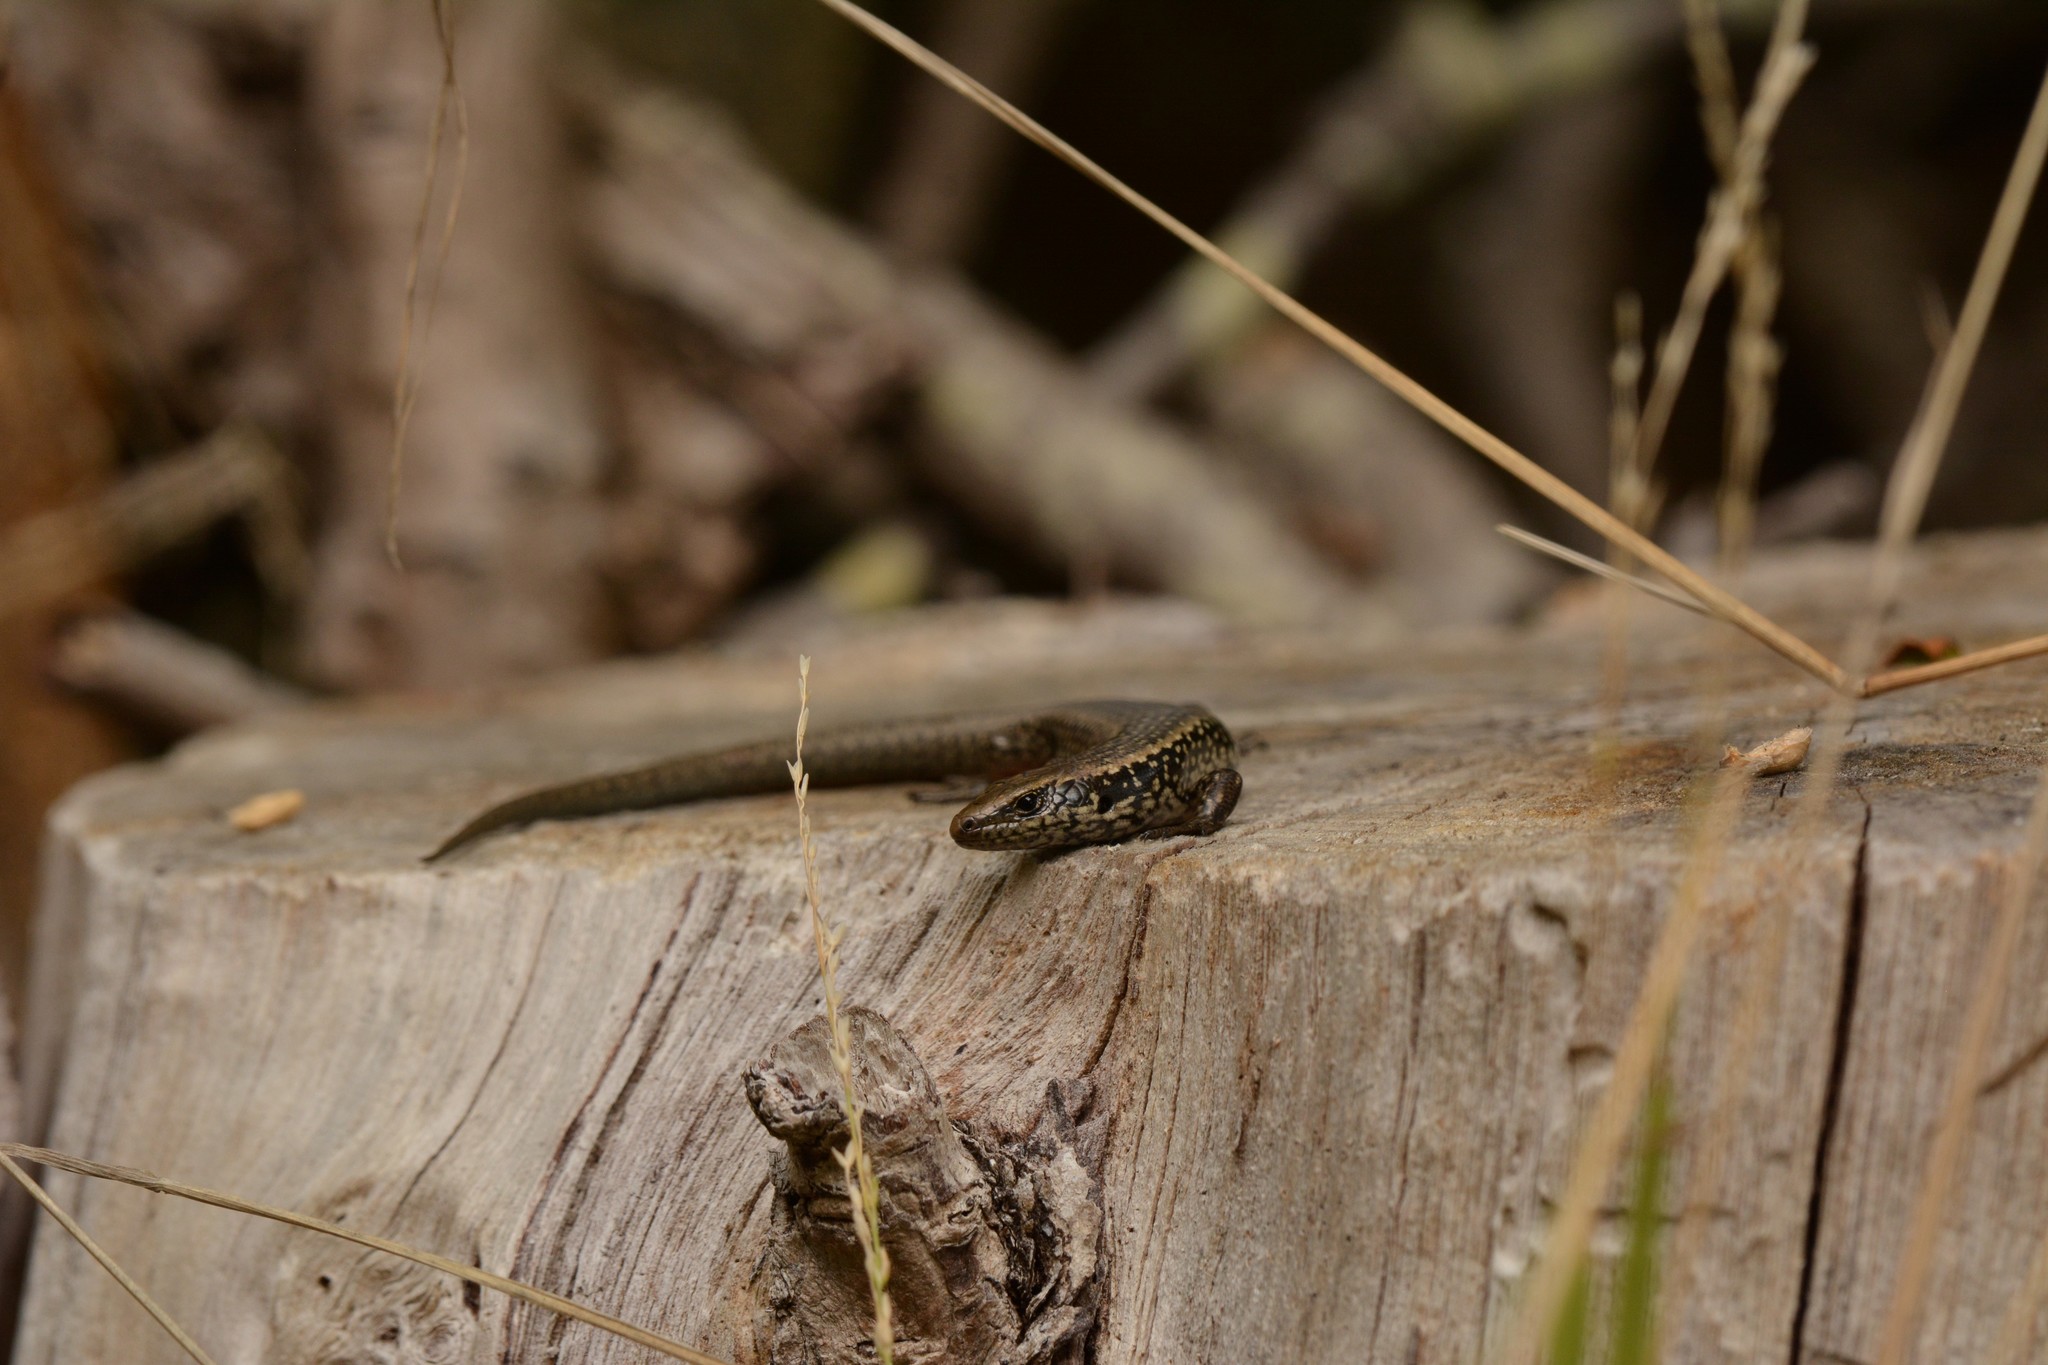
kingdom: Animalia
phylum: Chordata
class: Squamata
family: Scincidae
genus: Oligosoma
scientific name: Oligosoma kokowai
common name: Northern spotted skink
